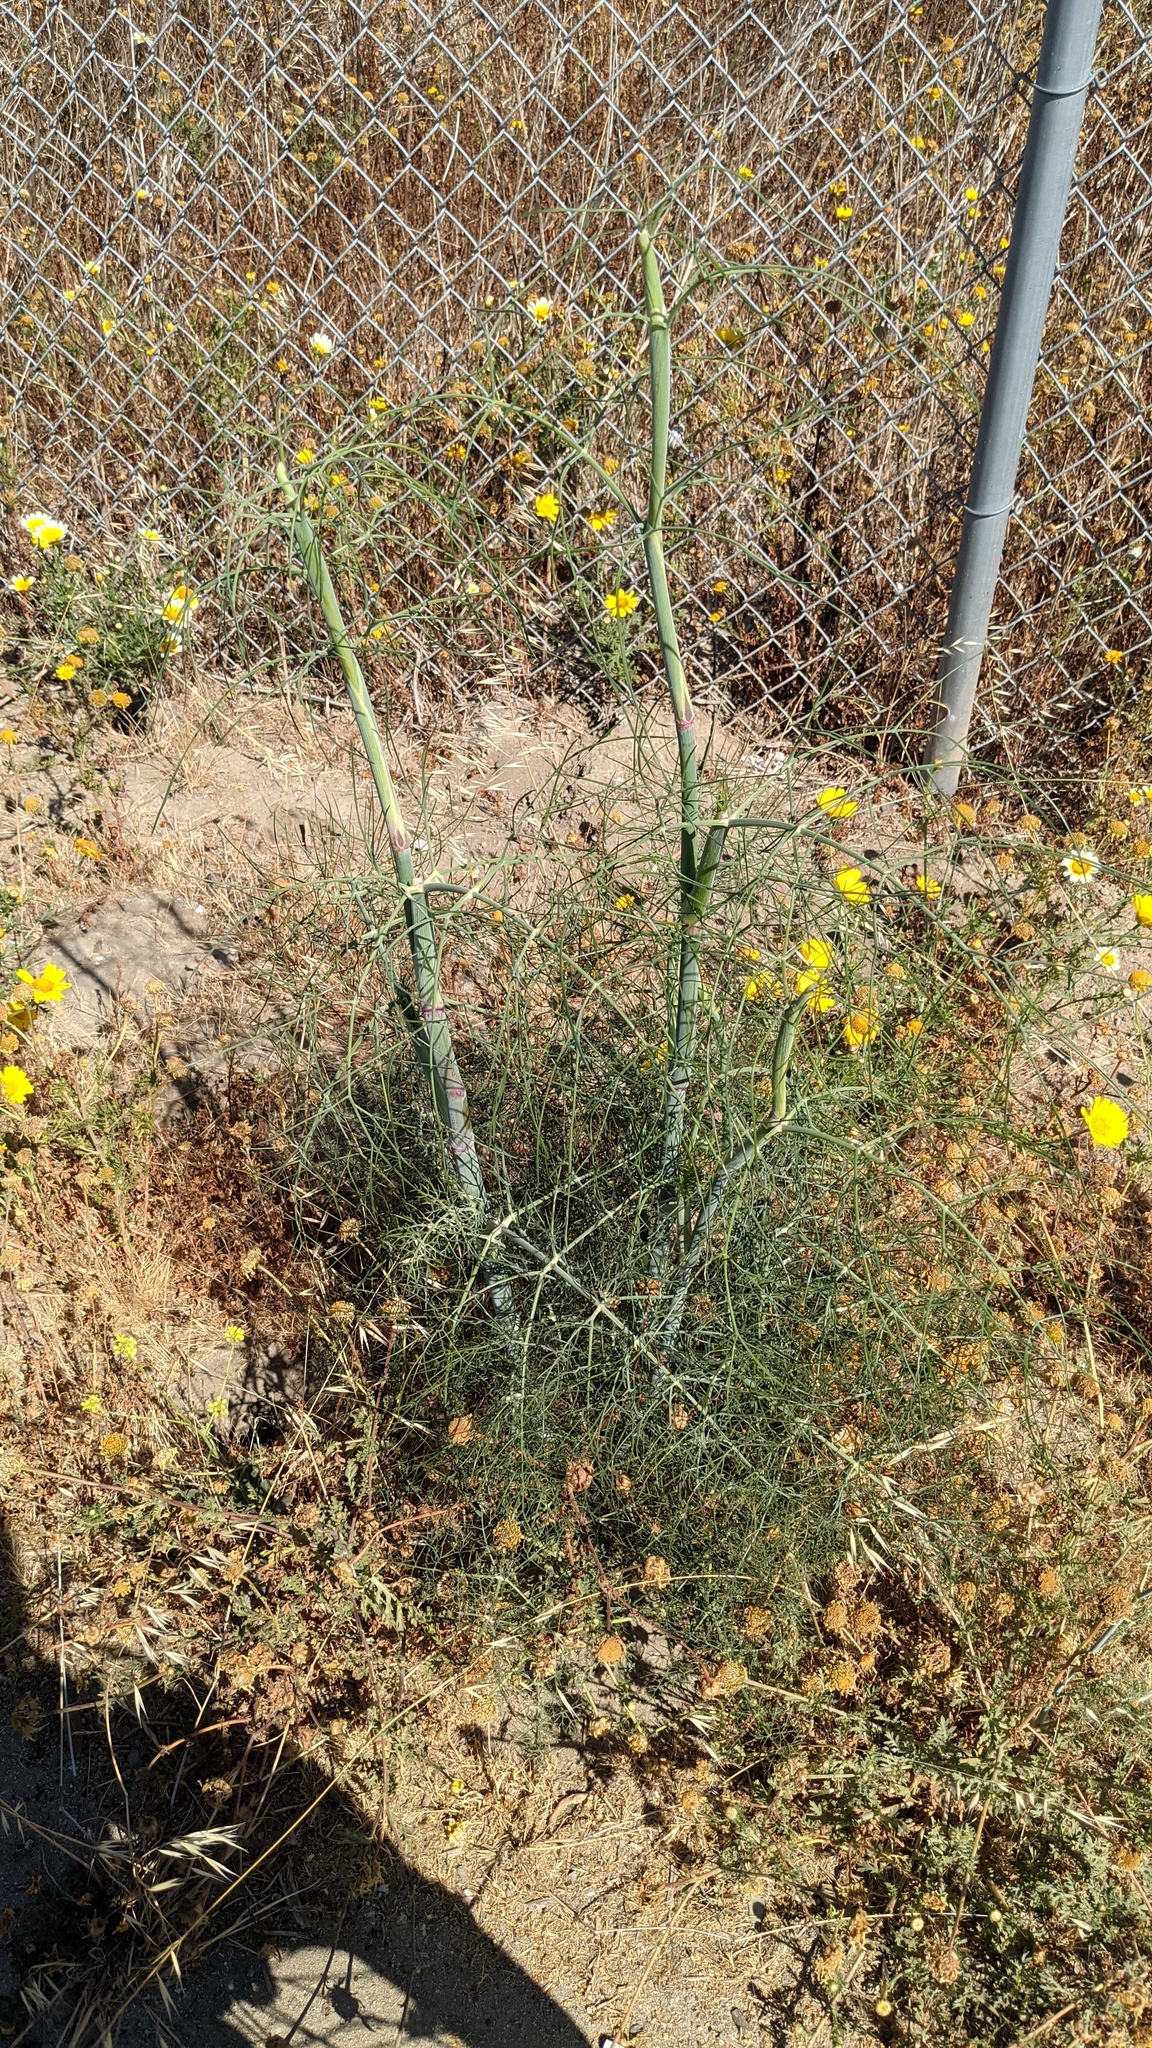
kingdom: Plantae
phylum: Tracheophyta
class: Magnoliopsida
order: Apiales
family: Apiaceae
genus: Foeniculum
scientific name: Foeniculum vulgare
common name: Fennel
